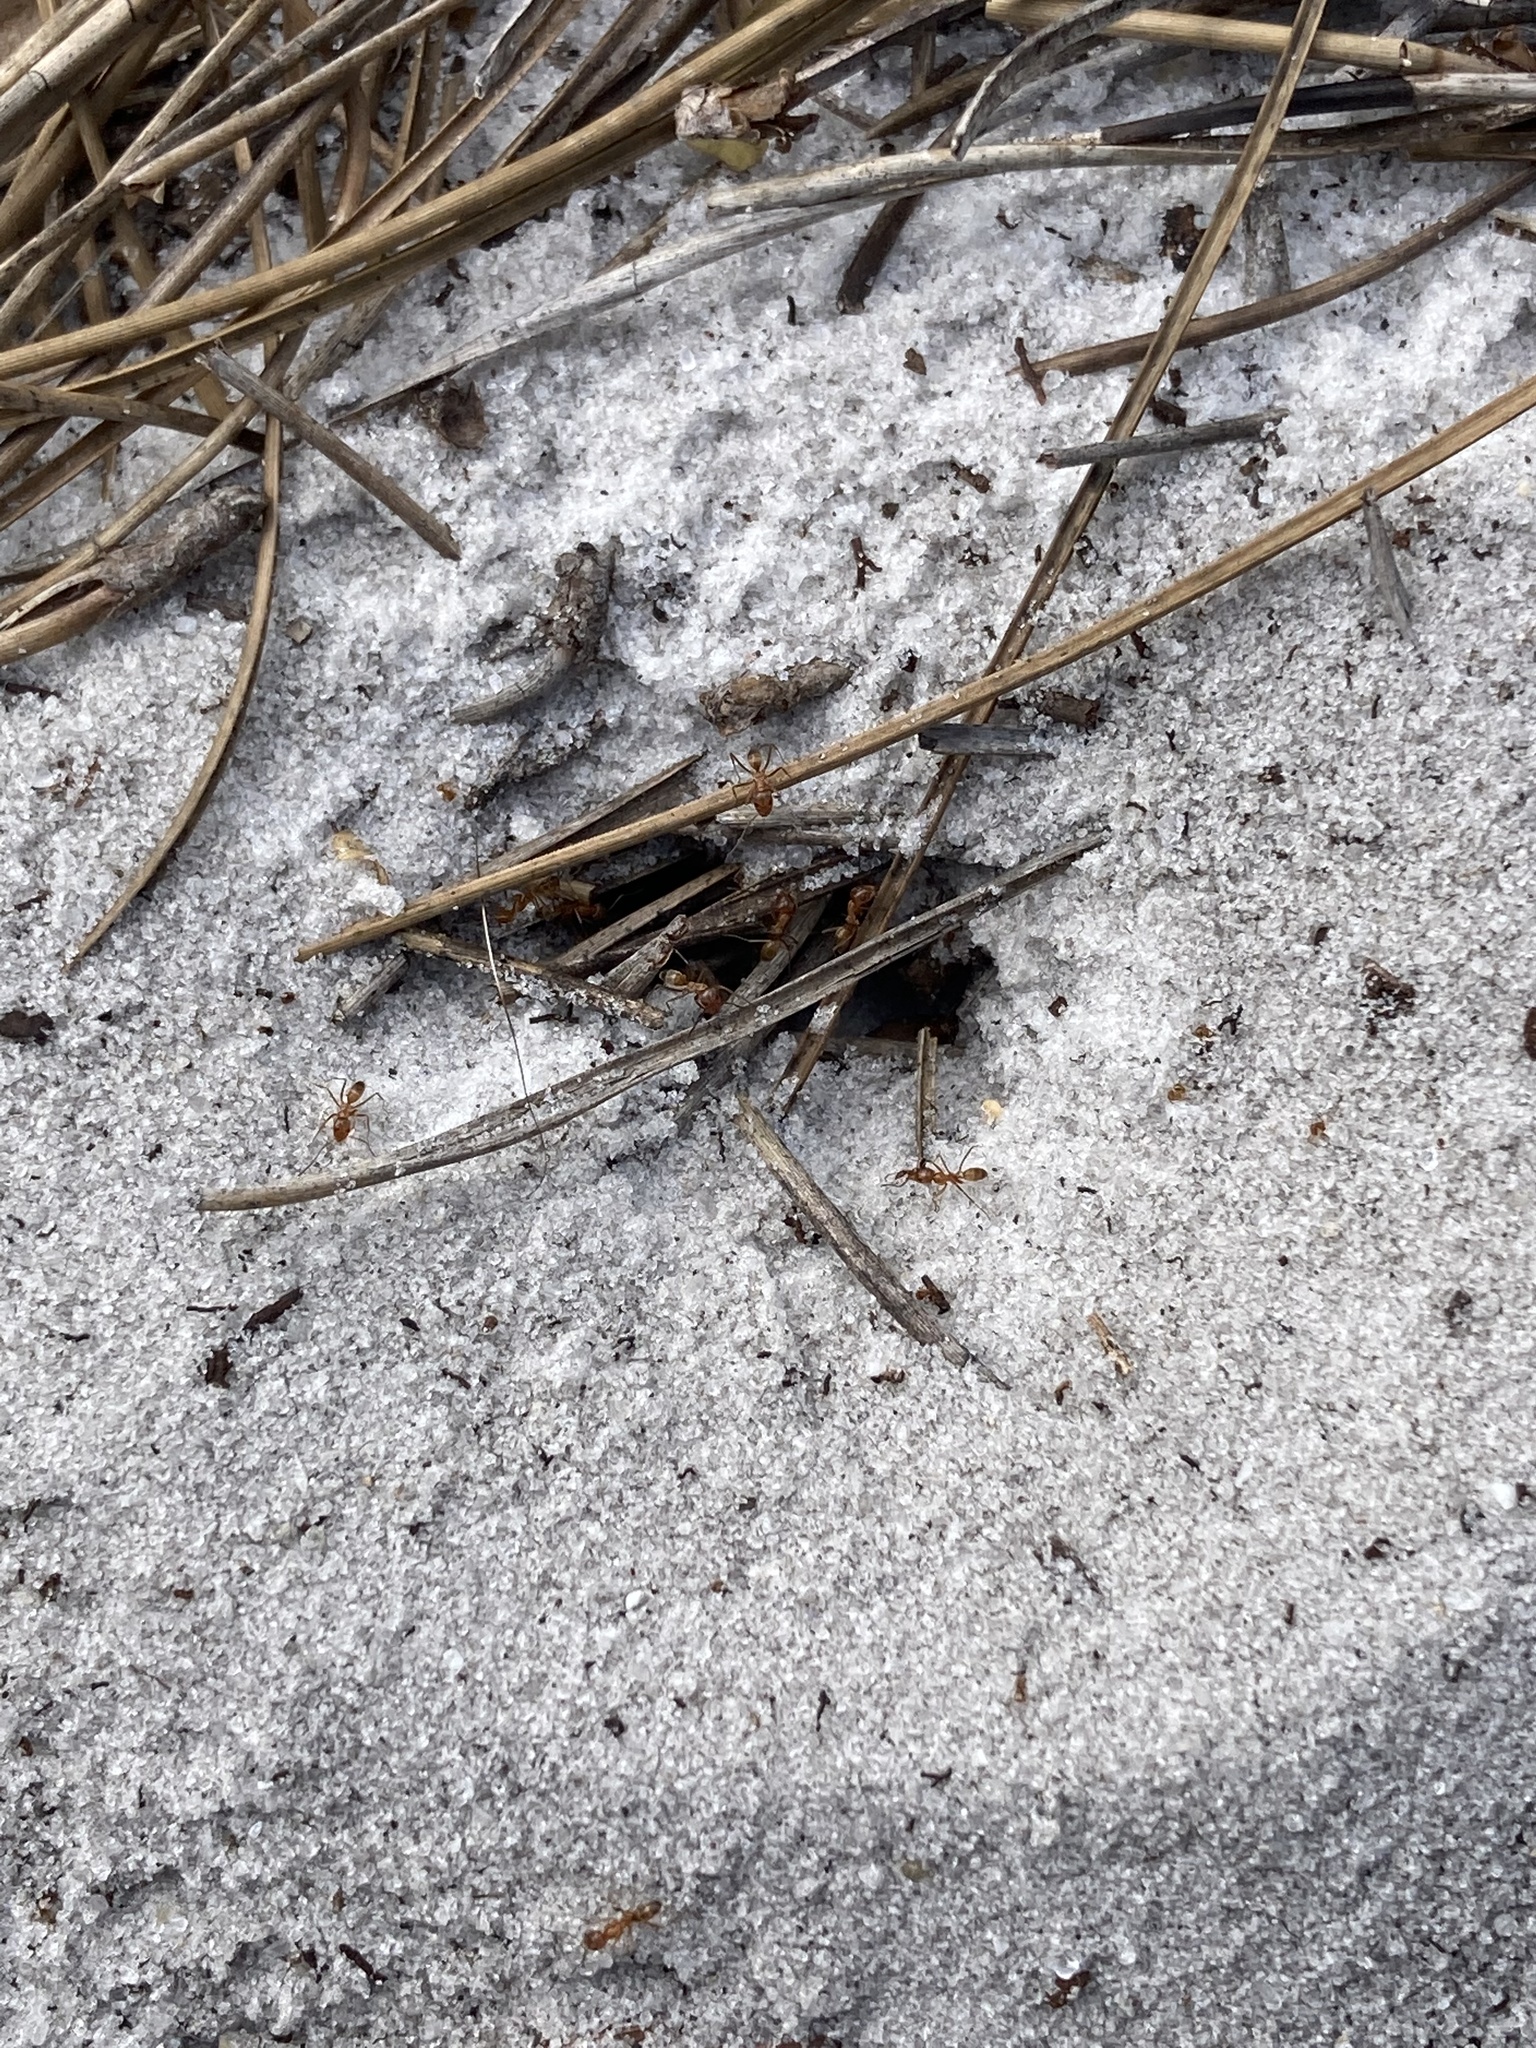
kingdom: Animalia
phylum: Arthropoda
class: Insecta
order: Hymenoptera
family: Formicidae
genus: Dorymyrmex
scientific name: Dorymyrmex bureni
